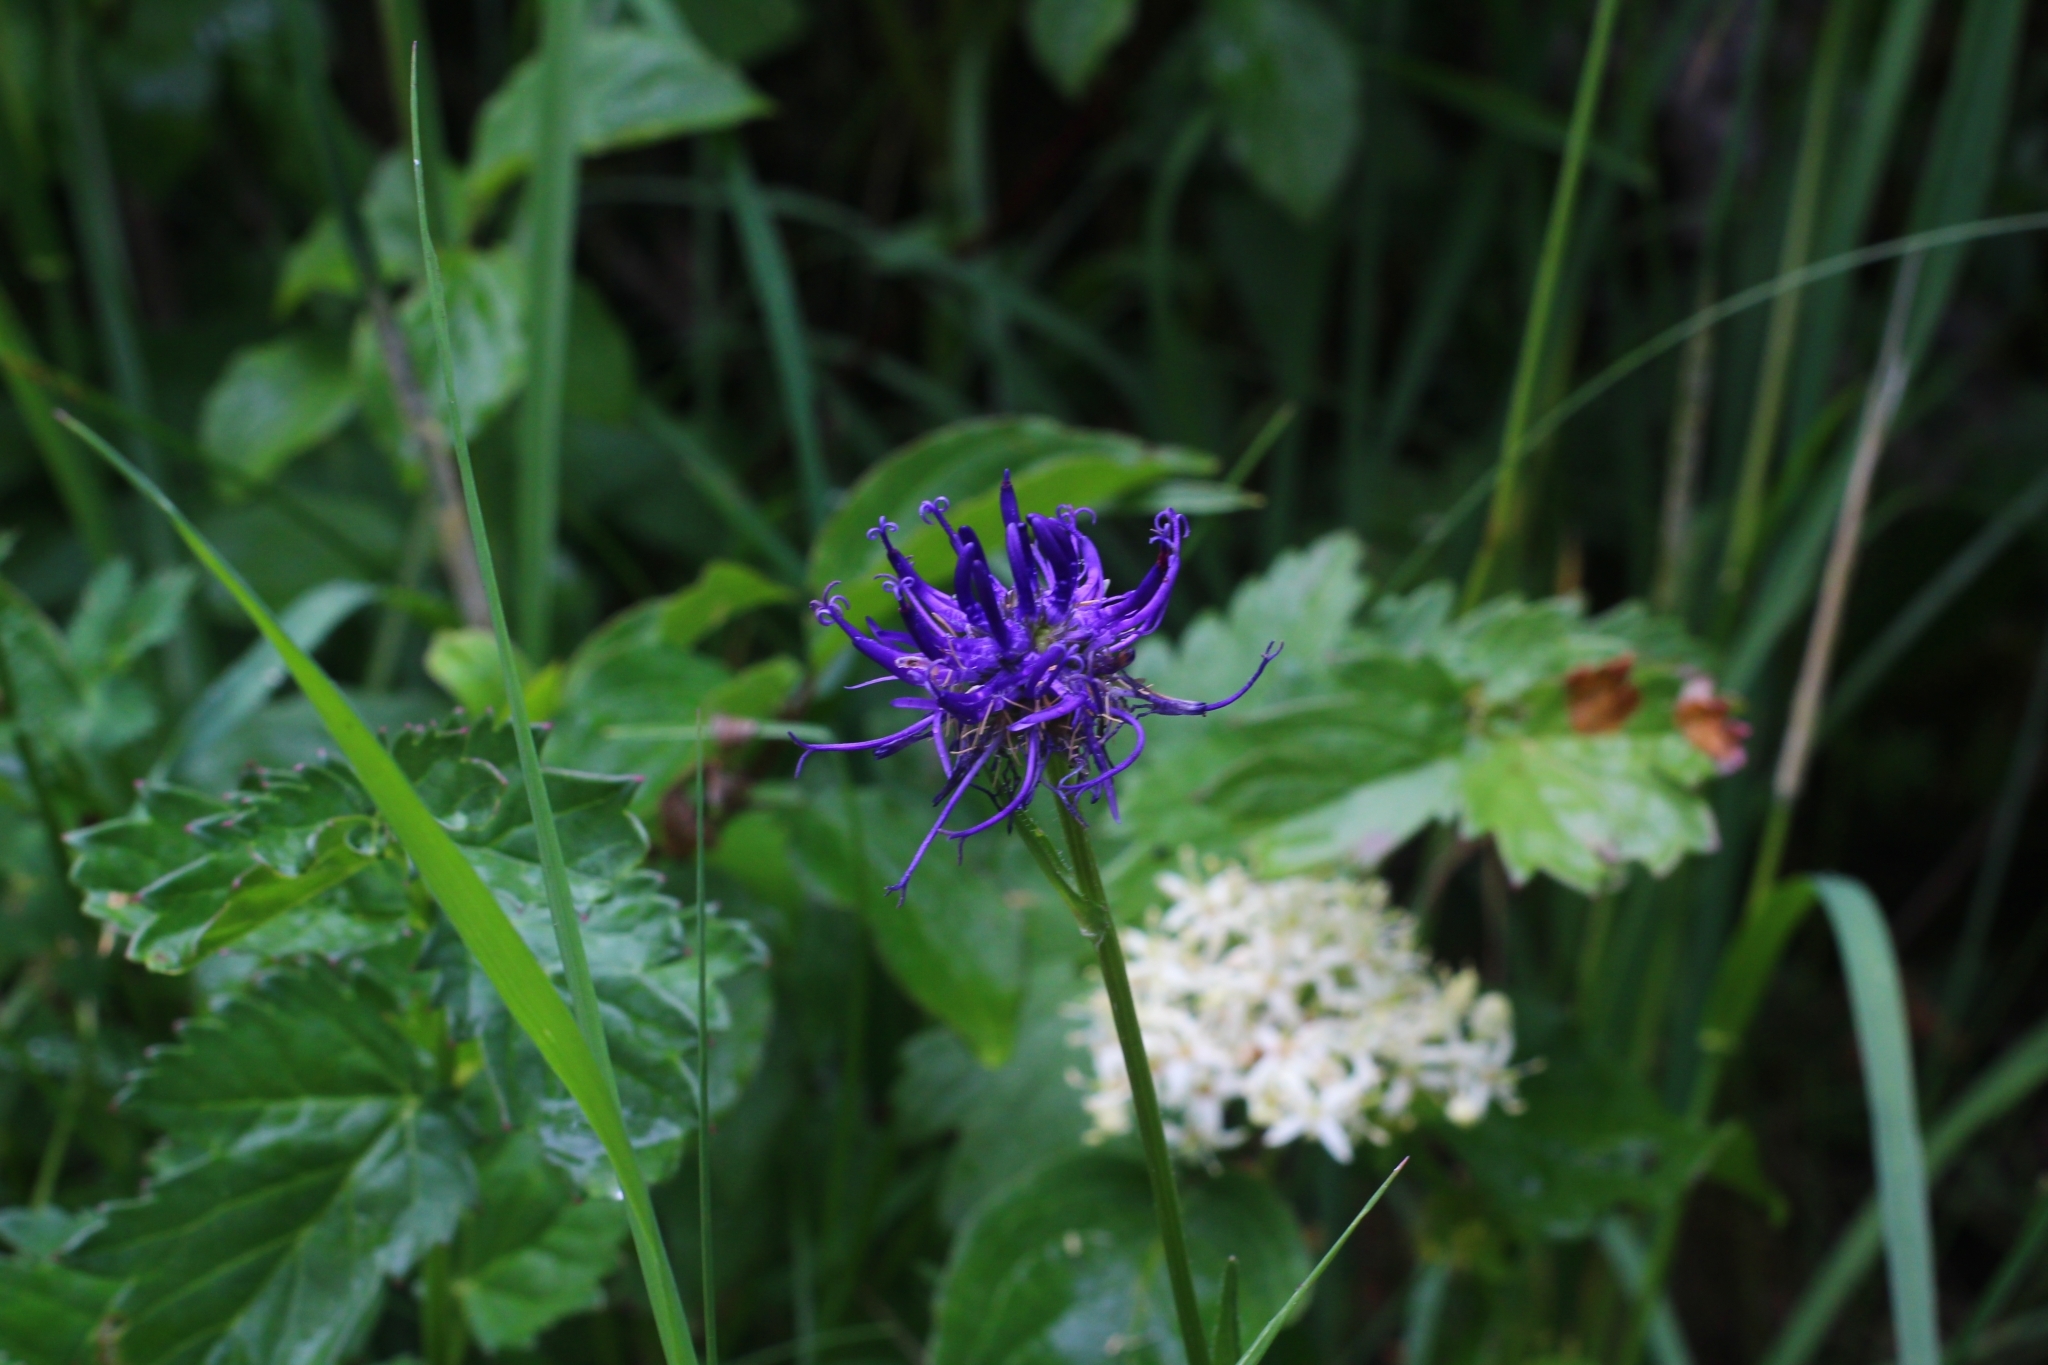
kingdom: Plantae
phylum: Tracheophyta
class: Magnoliopsida
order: Asterales
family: Campanulaceae
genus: Phyteuma
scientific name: Phyteuma orbiculare
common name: Round-headed rampion
